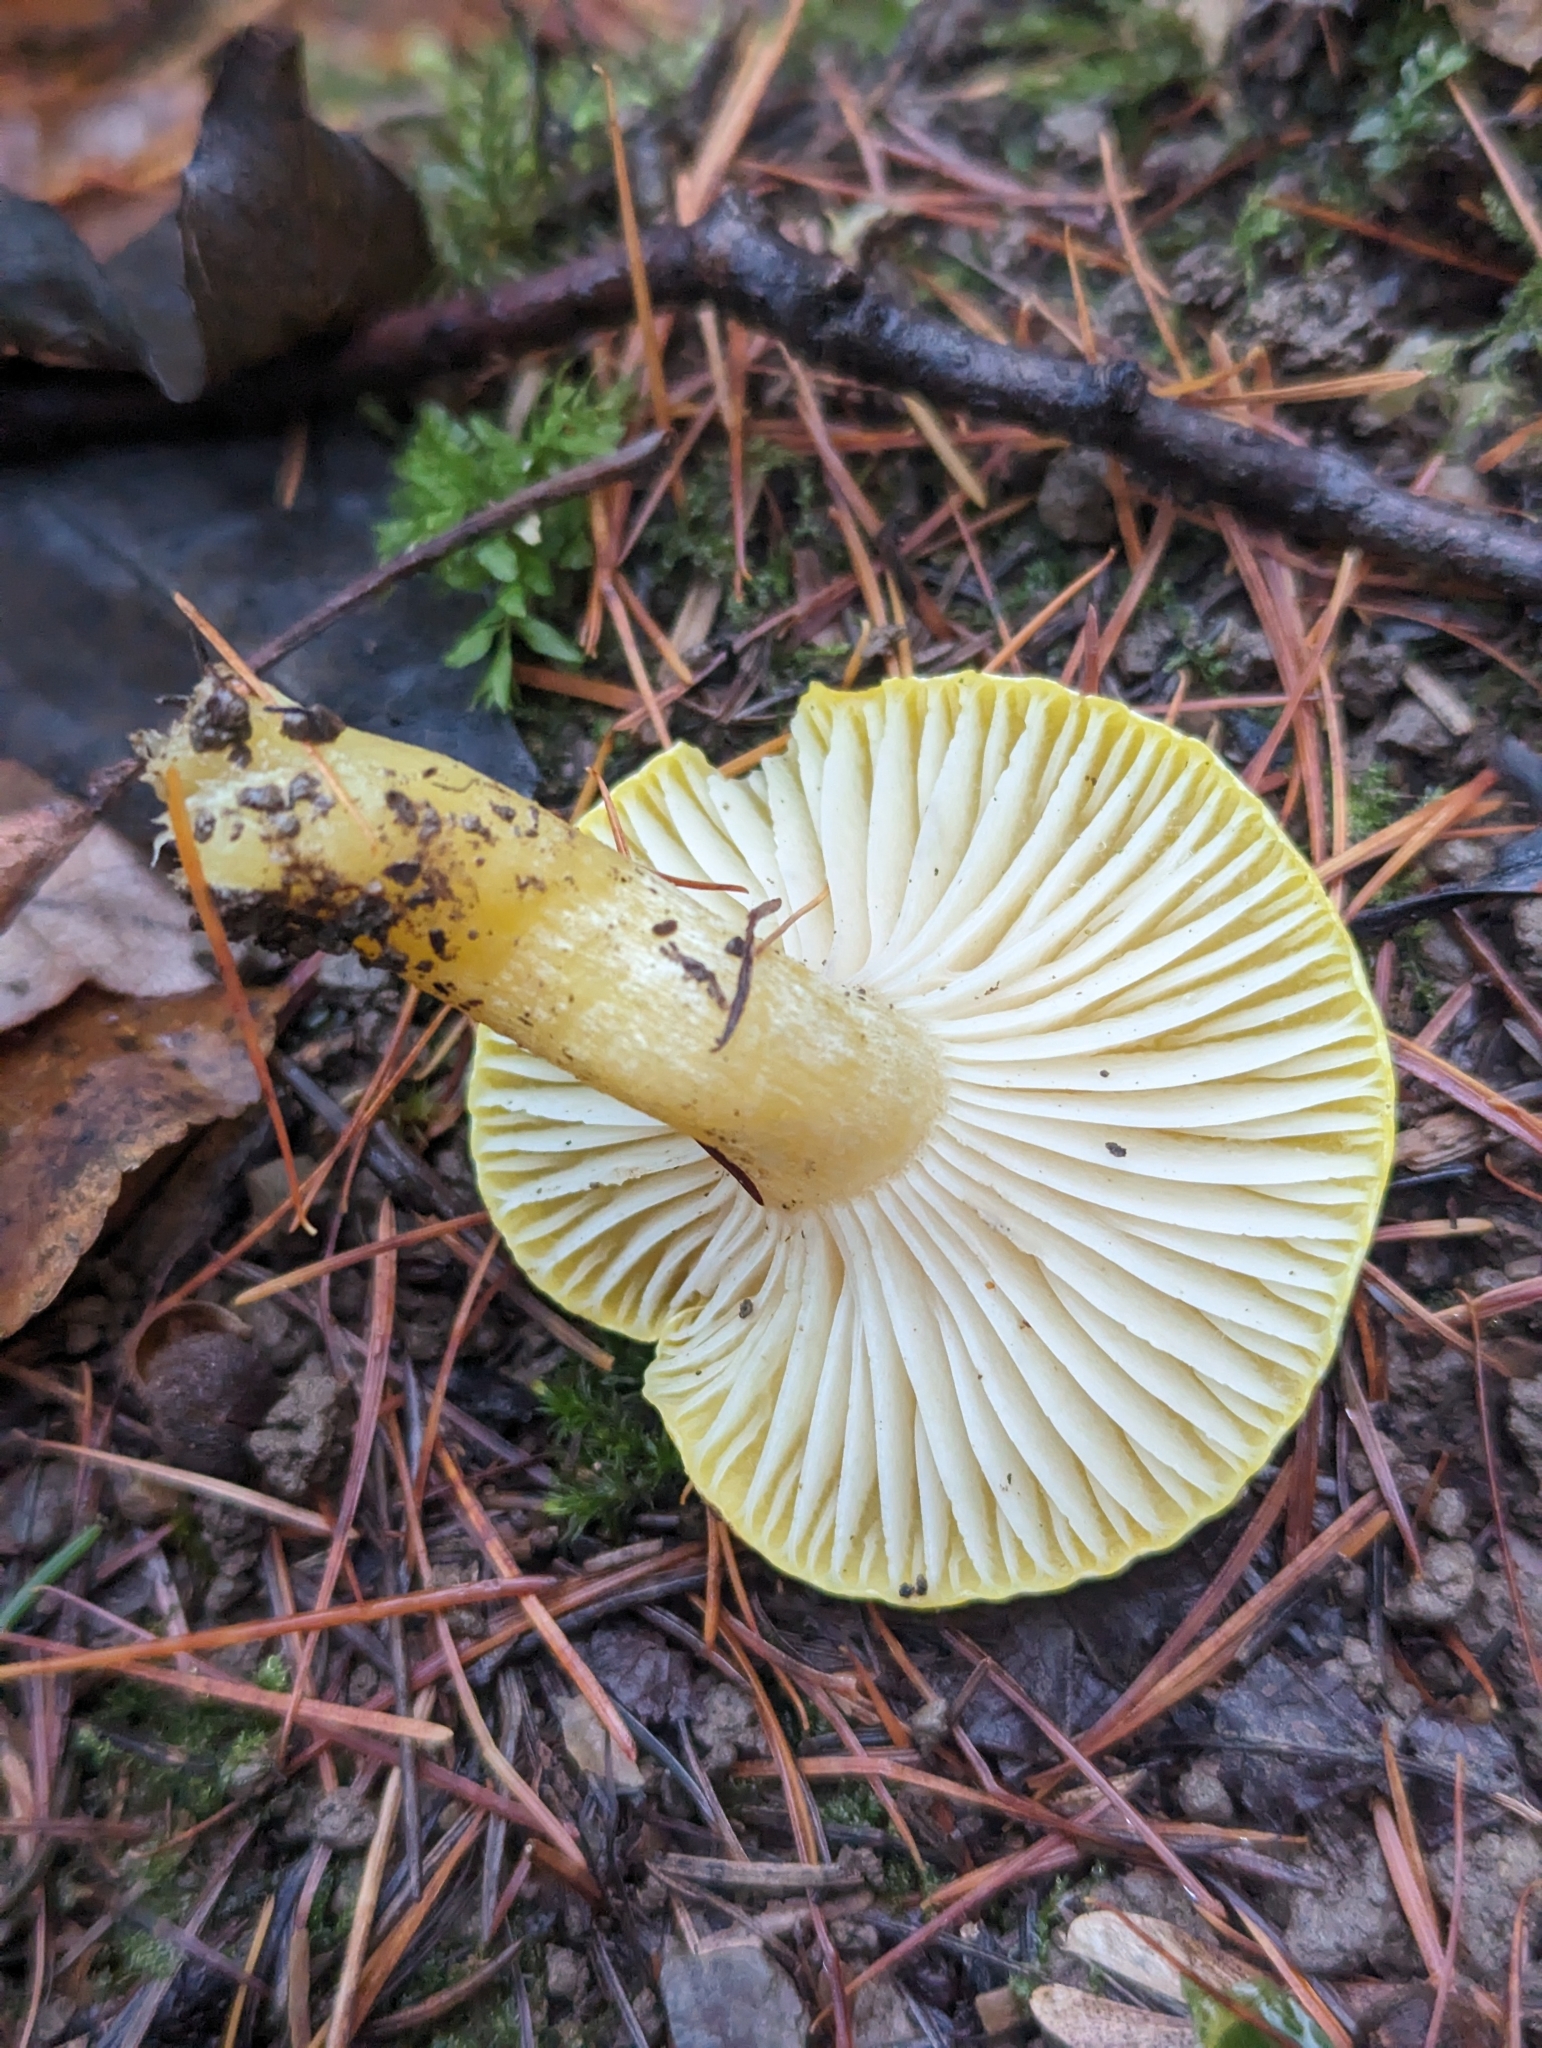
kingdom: Fungi
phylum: Basidiomycota
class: Agaricomycetes
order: Agaricales
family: Hygrophoraceae
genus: Hygrophorus
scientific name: Hygrophorus lucorum
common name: Larch woodwax
